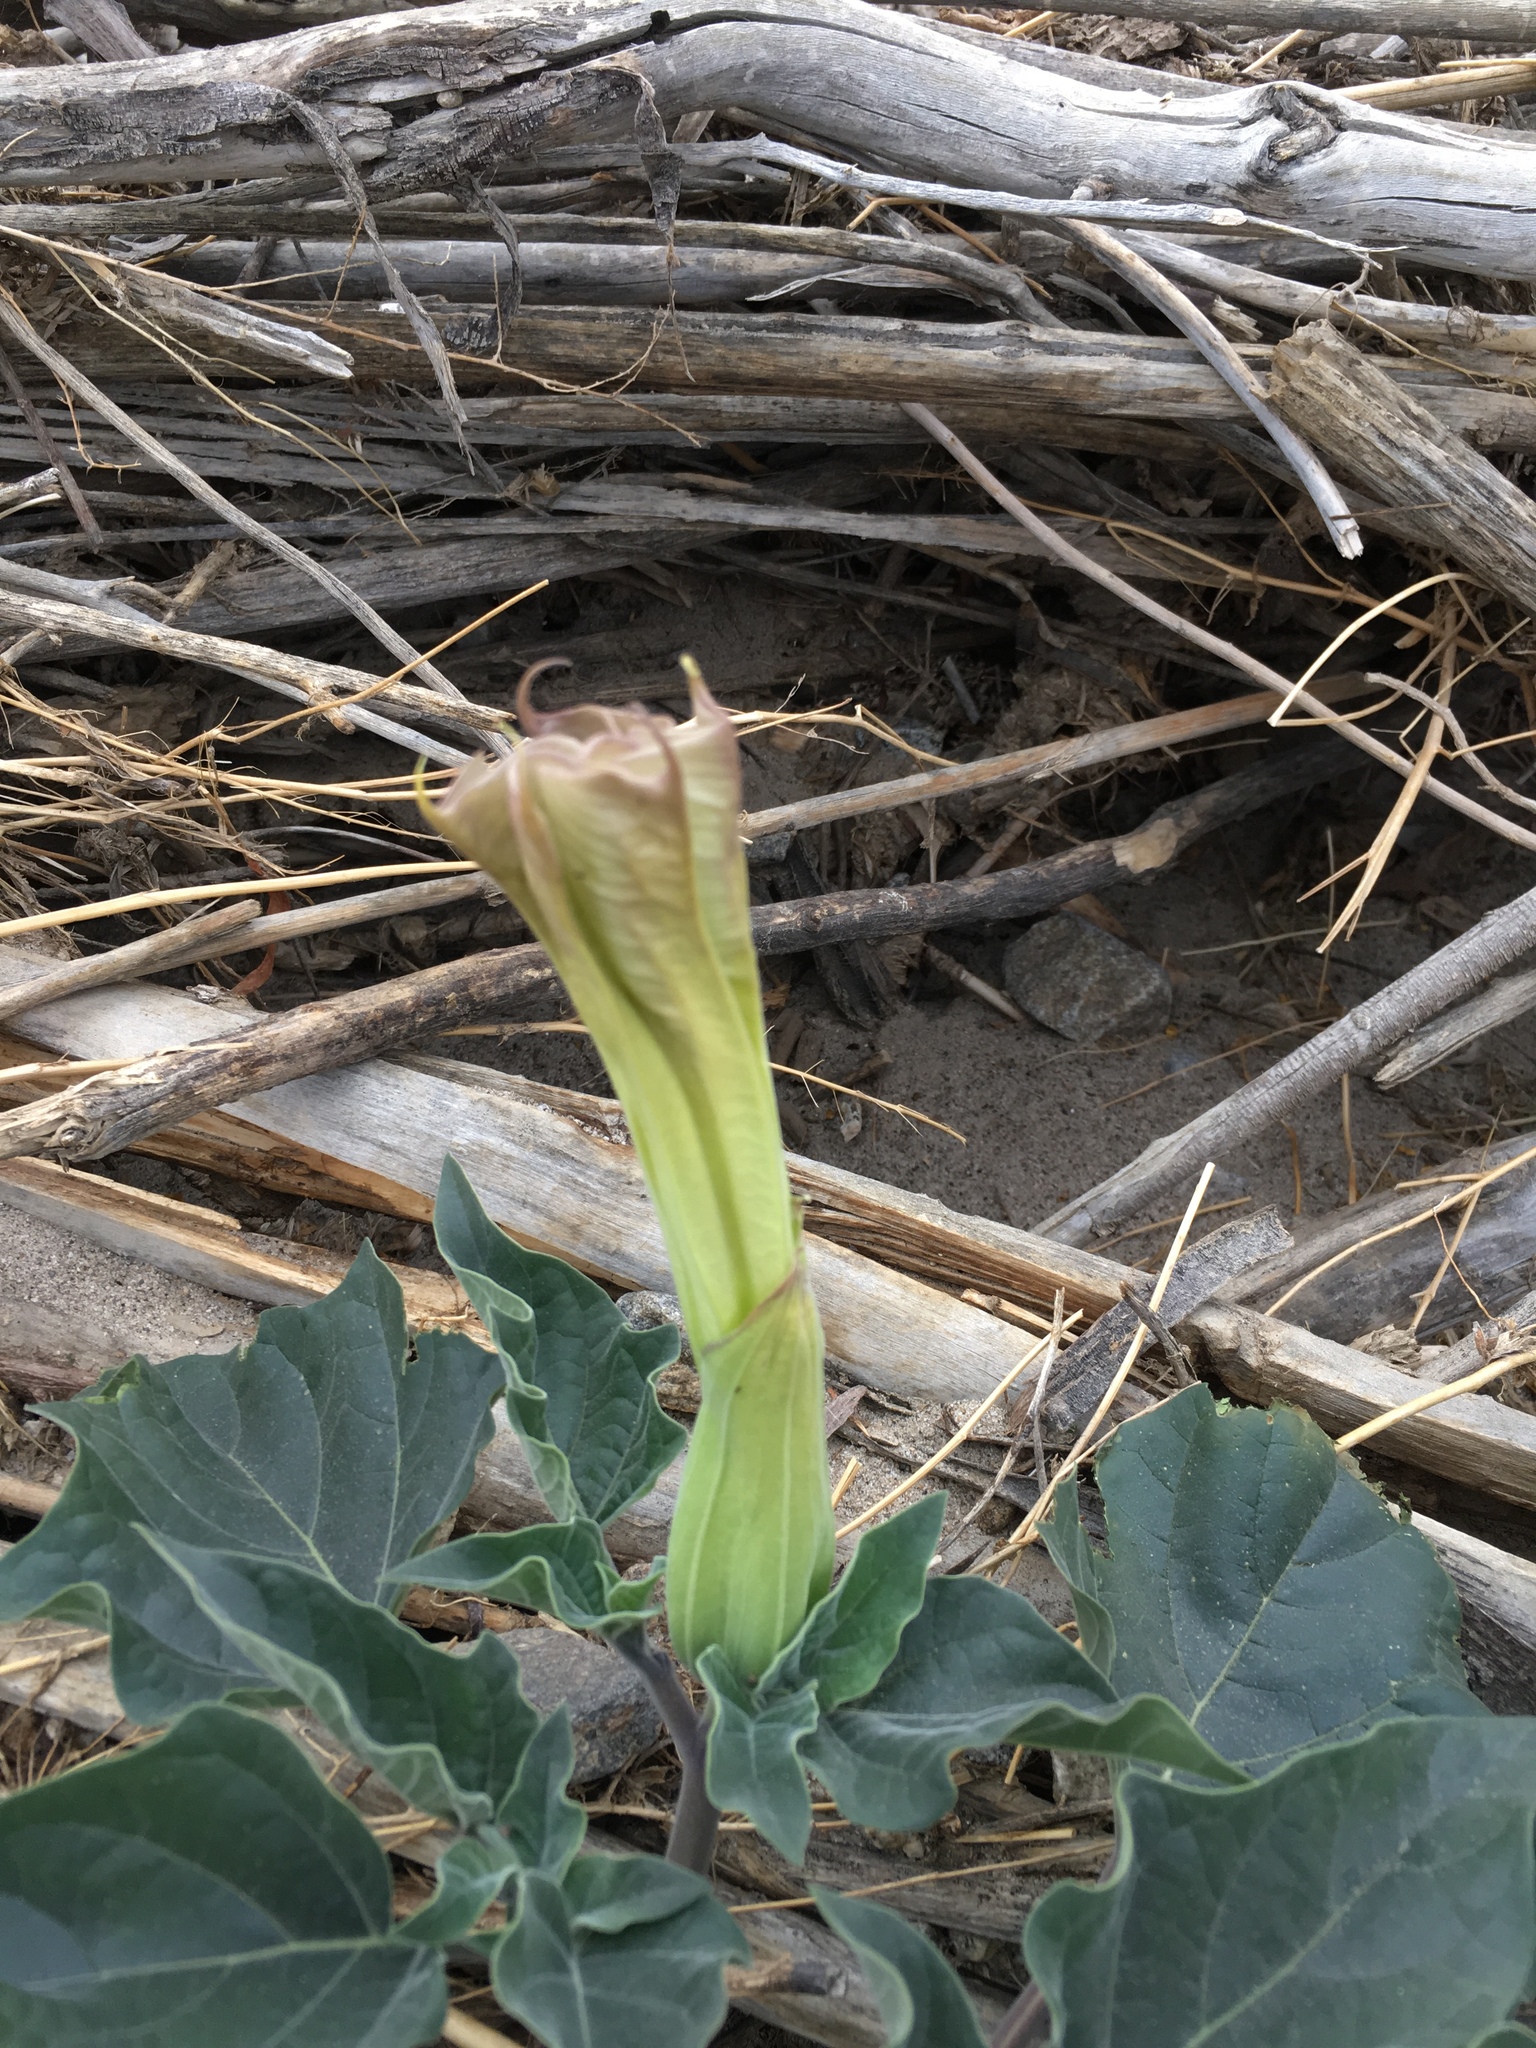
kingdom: Plantae
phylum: Tracheophyta
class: Magnoliopsida
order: Solanales
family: Solanaceae
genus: Datura
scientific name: Datura wrightii
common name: Sacred thorn-apple
